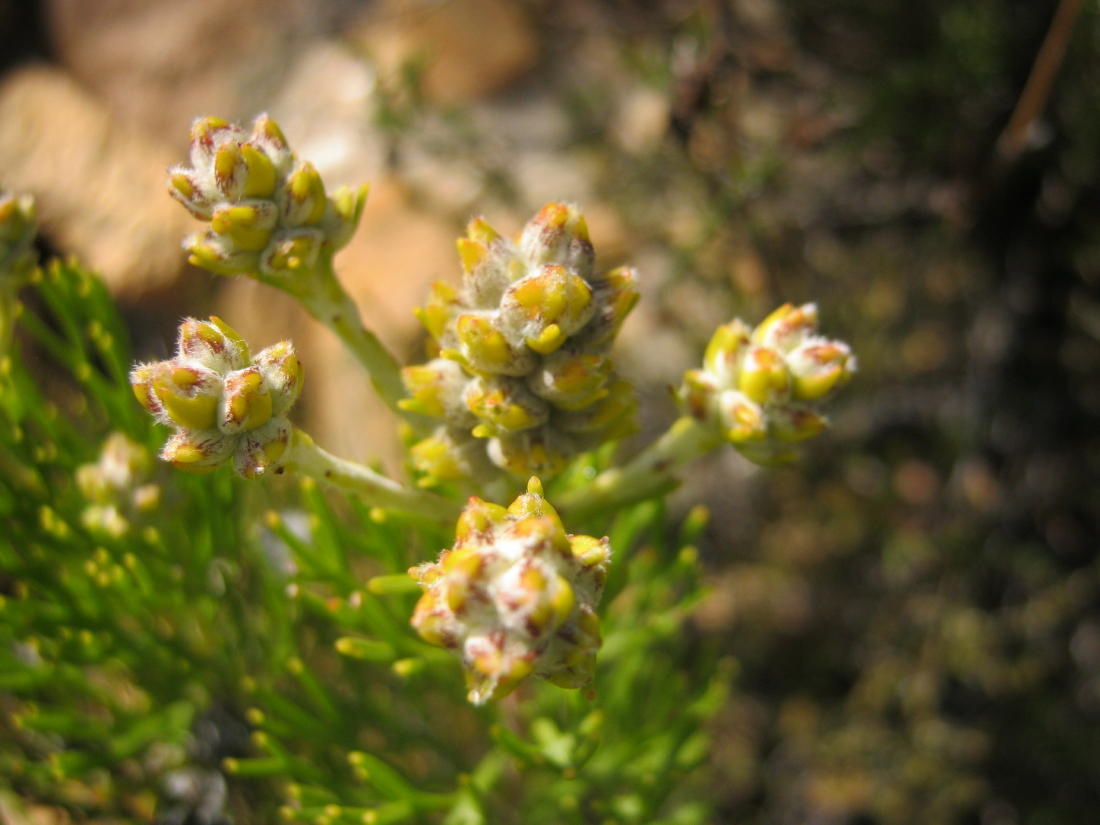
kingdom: Plantae
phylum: Tracheophyta
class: Magnoliopsida
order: Proteales
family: Proteaceae
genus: Paranomus
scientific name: Paranomus esterhuyseniae
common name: Kouga sceptre
